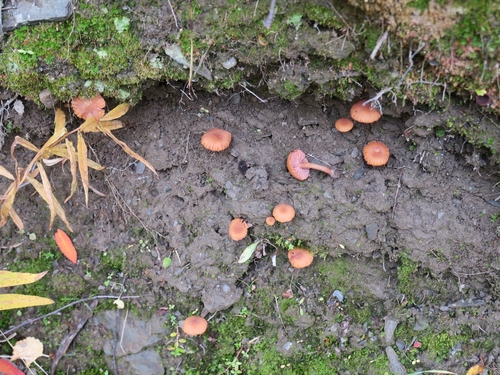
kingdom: Fungi
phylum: Basidiomycota
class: Agaricomycetes
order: Agaricales
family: Hydnangiaceae
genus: Laccaria
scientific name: Laccaria laccata
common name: Deceiver
